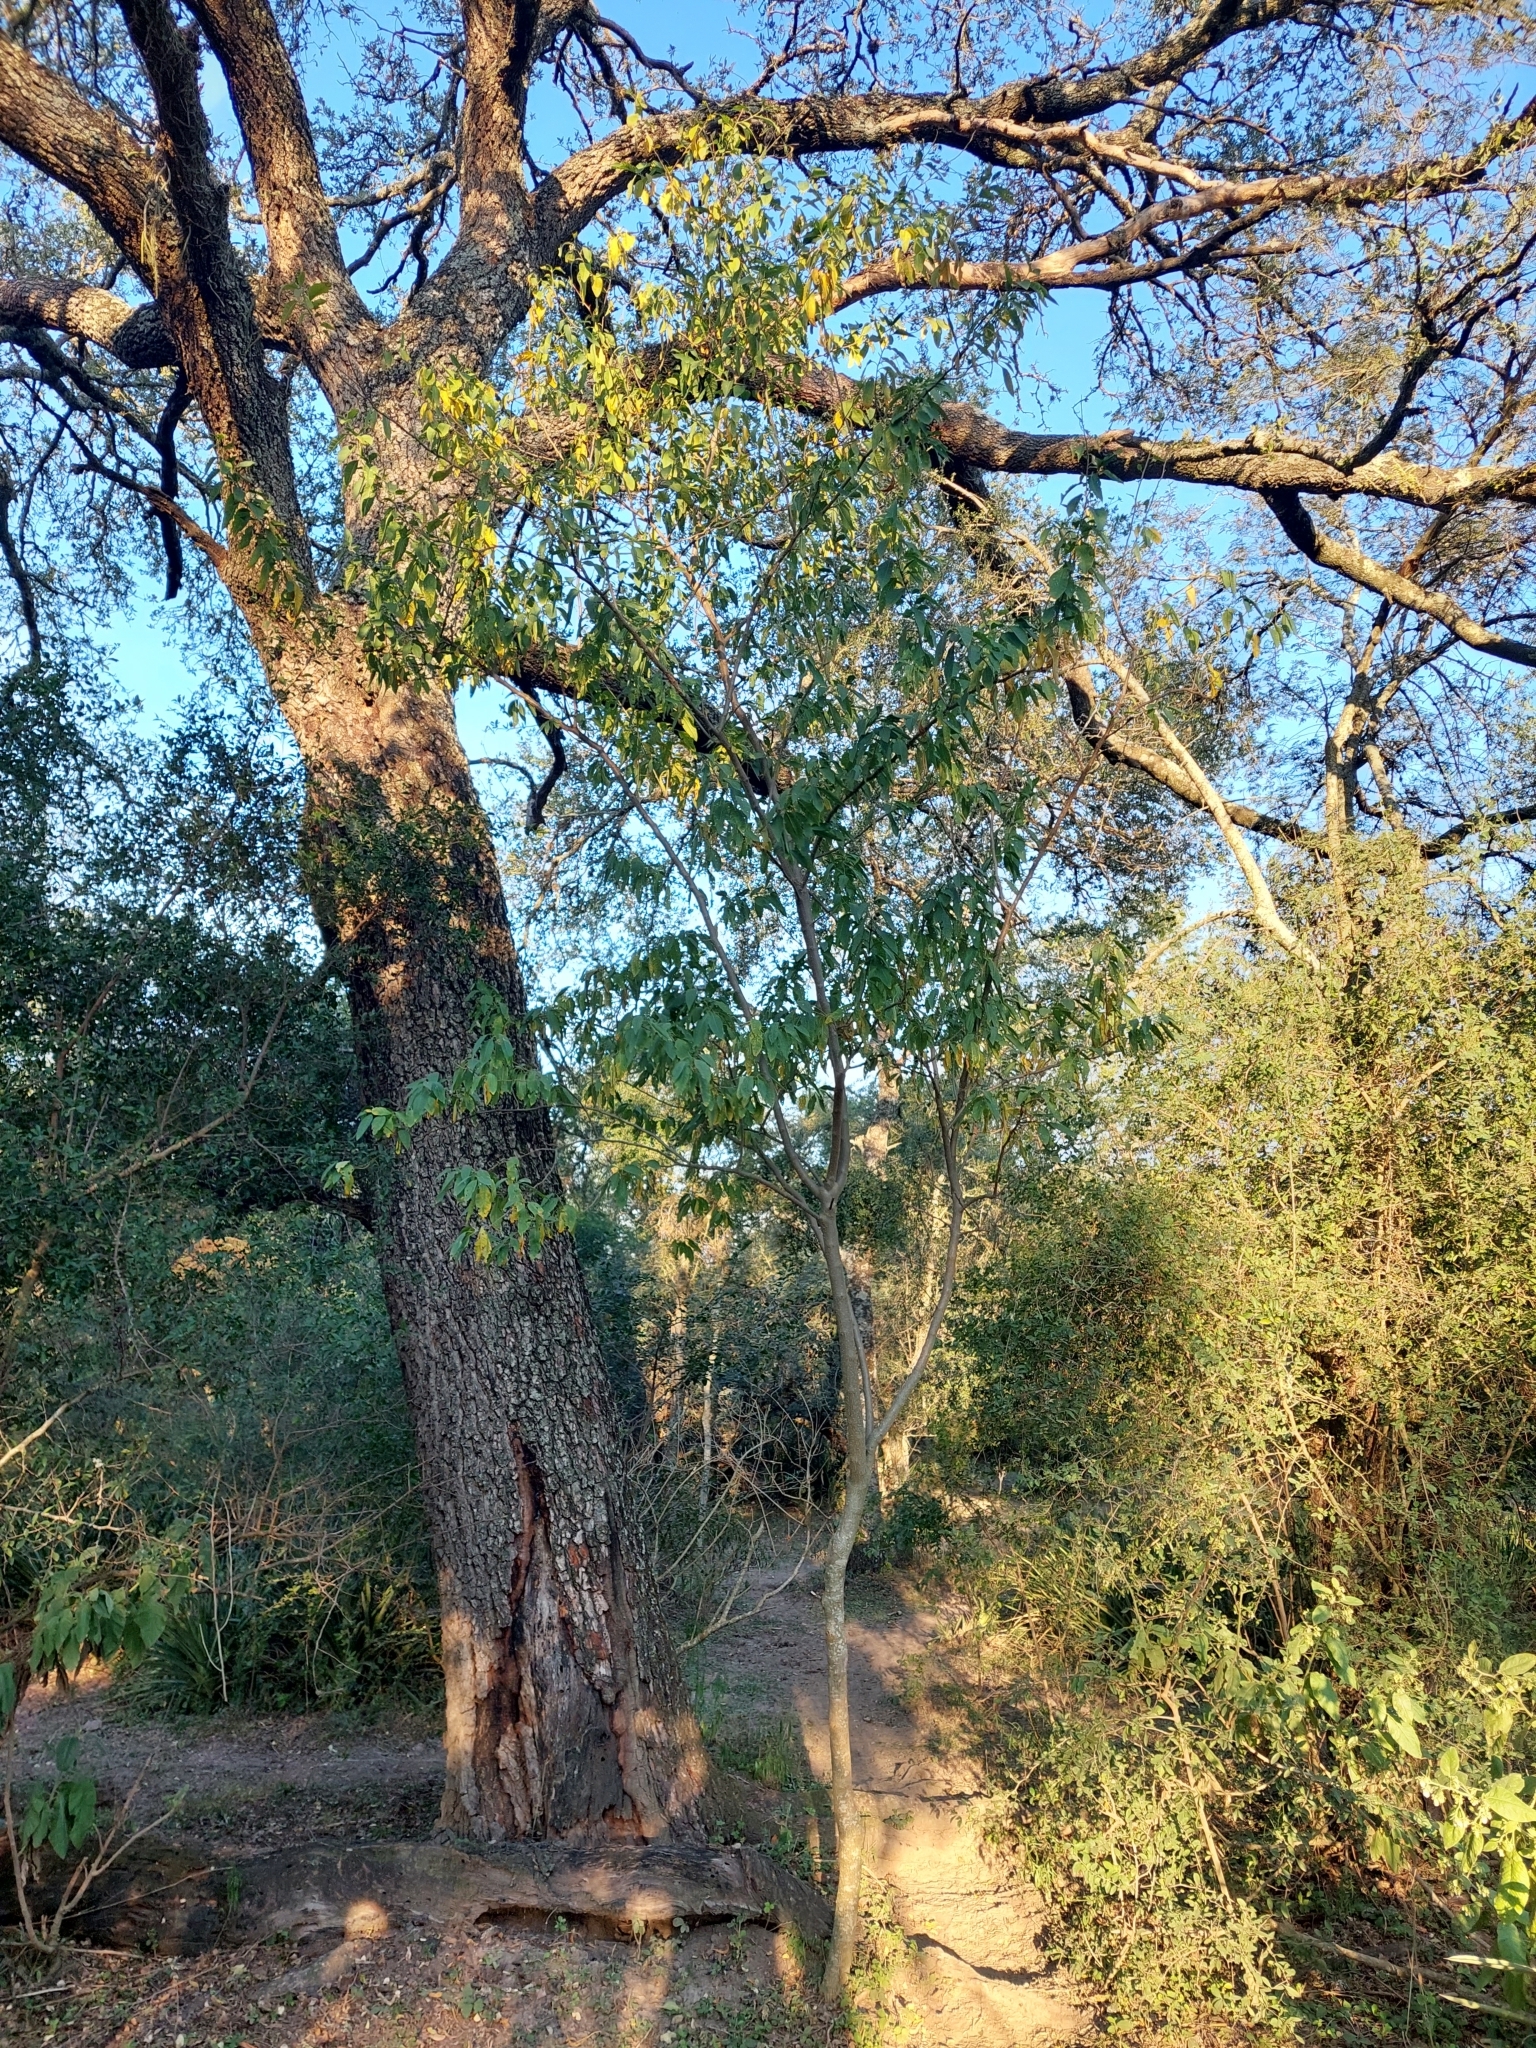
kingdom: Plantae
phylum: Tracheophyta
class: Magnoliopsida
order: Solanales
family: Solanaceae
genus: Vassobia
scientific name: Vassobia breviflora
